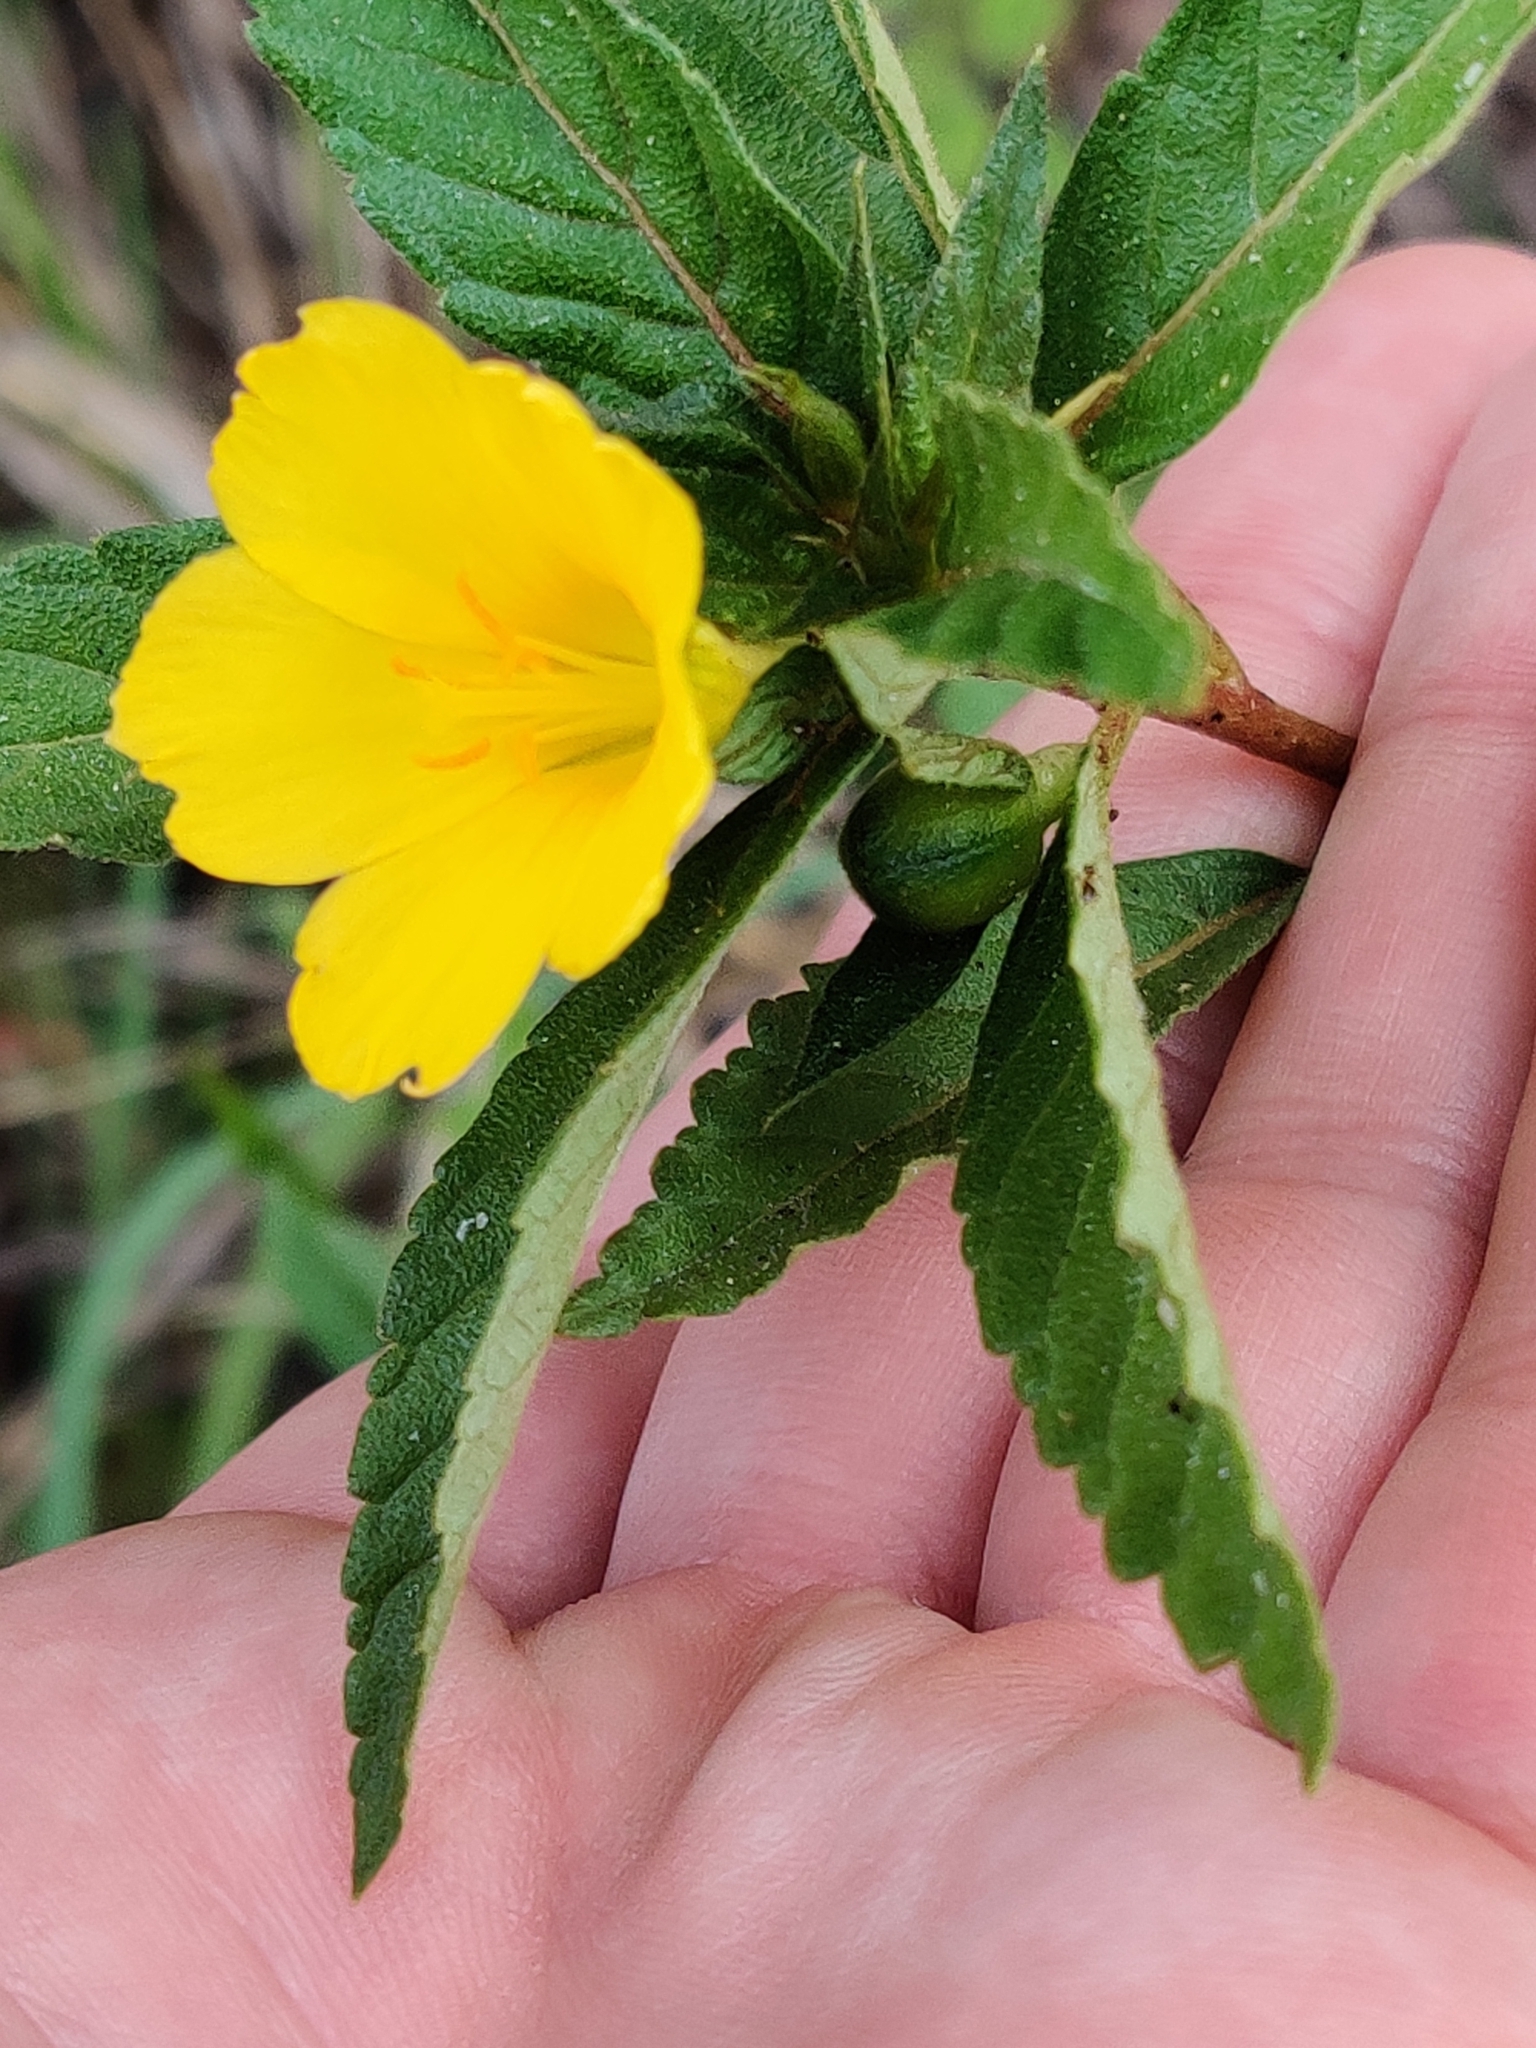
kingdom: Plantae
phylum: Tracheophyta
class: Magnoliopsida
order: Malpighiales
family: Turneraceae
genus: Turnera
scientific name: Turnera ulmifolia
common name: Ramgoat dashalong
